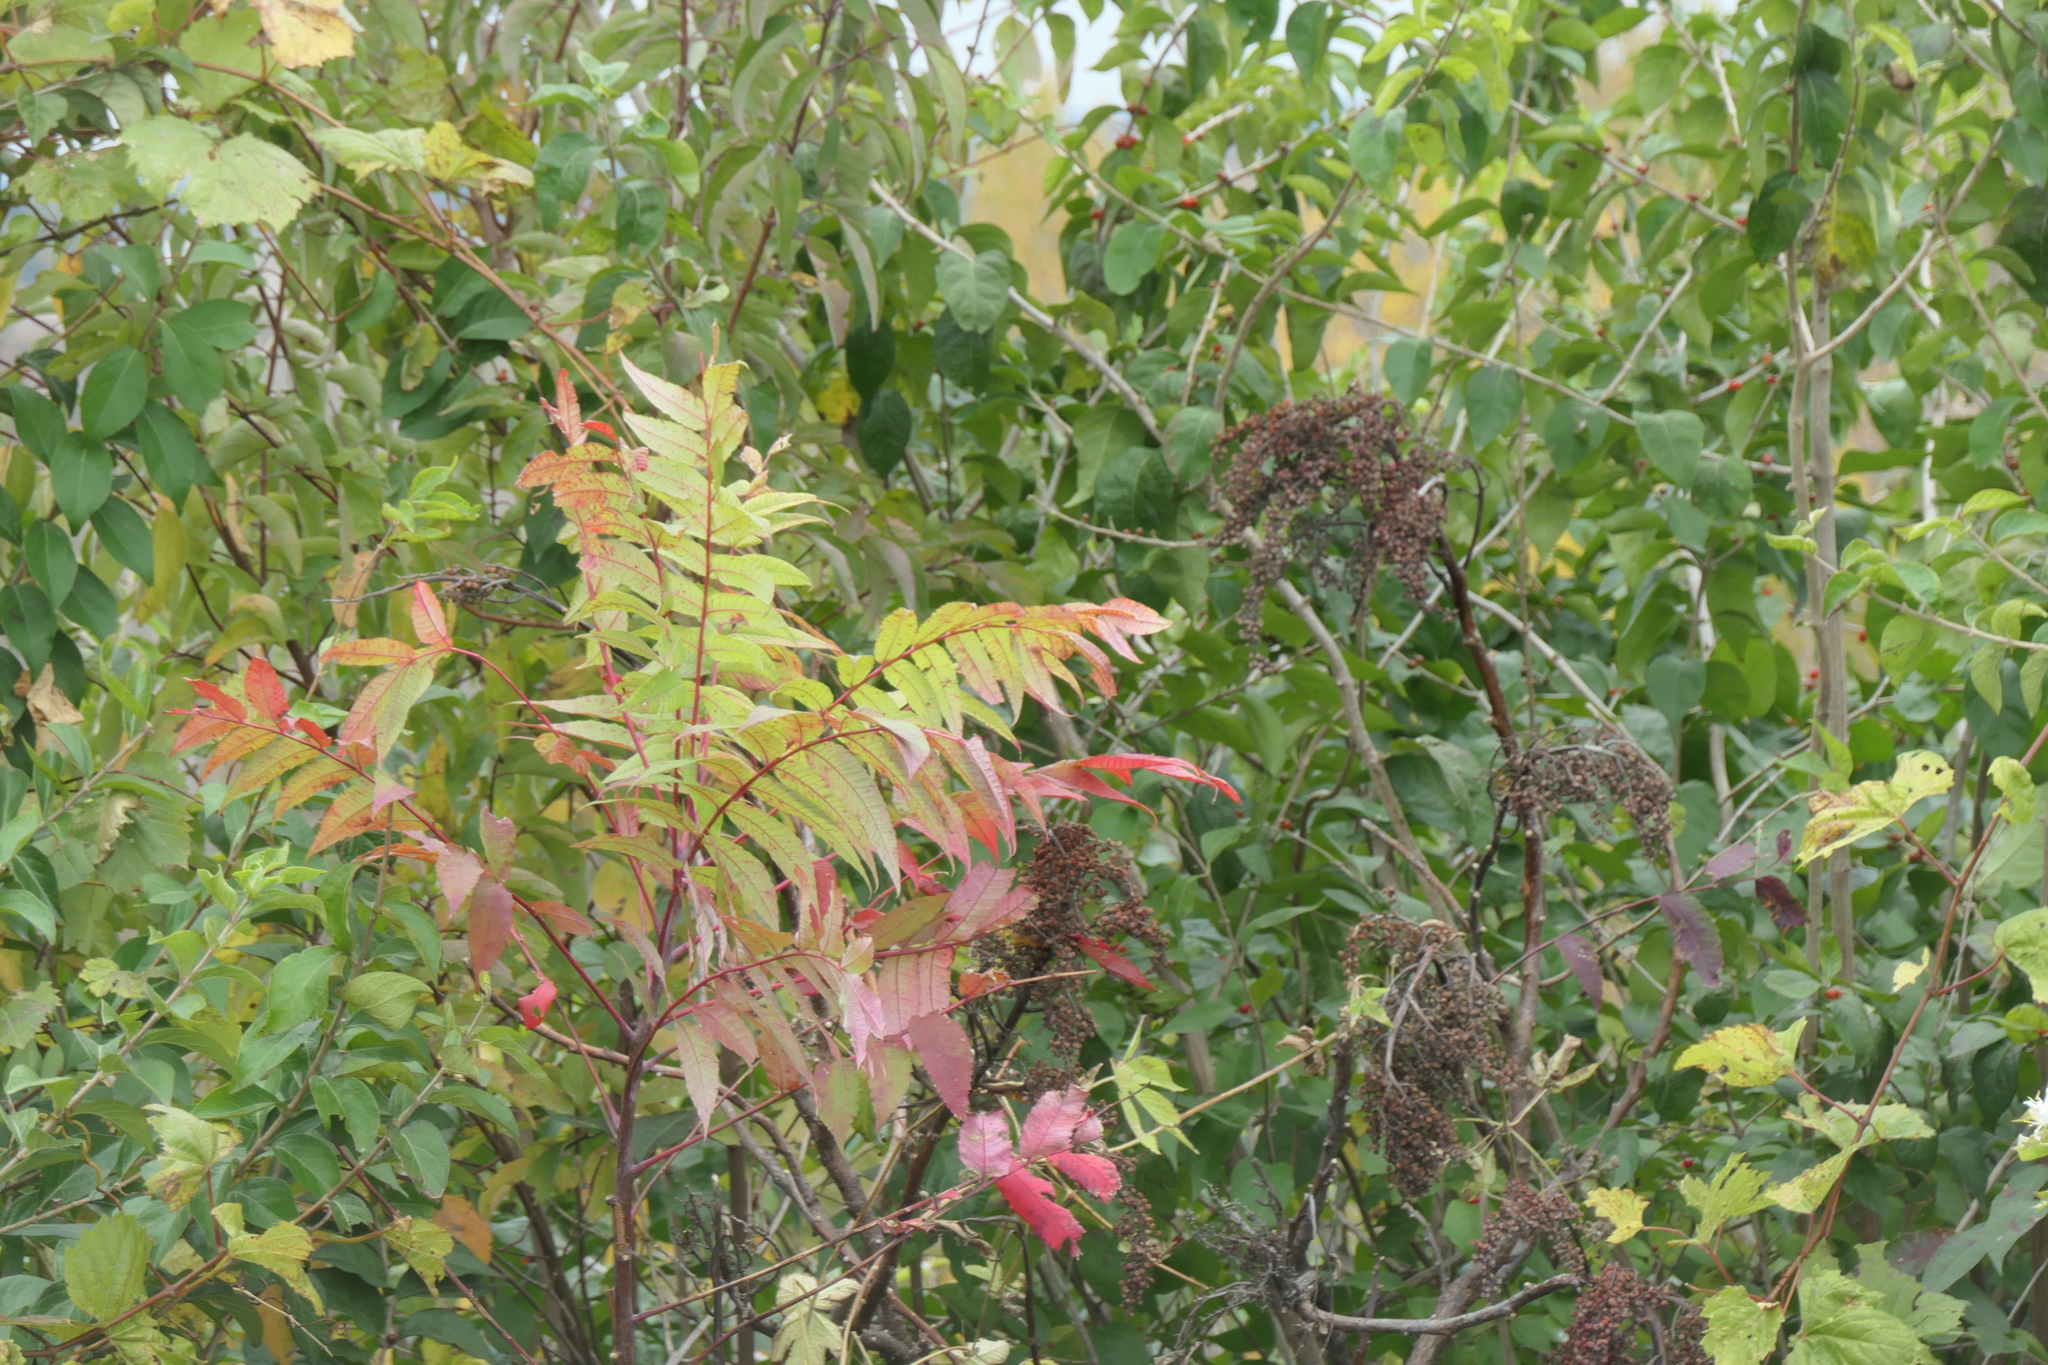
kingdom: Plantae
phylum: Tracheophyta
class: Magnoliopsida
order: Sapindales
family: Anacardiaceae
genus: Rhus
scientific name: Rhus glabra
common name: Scarlet sumac
